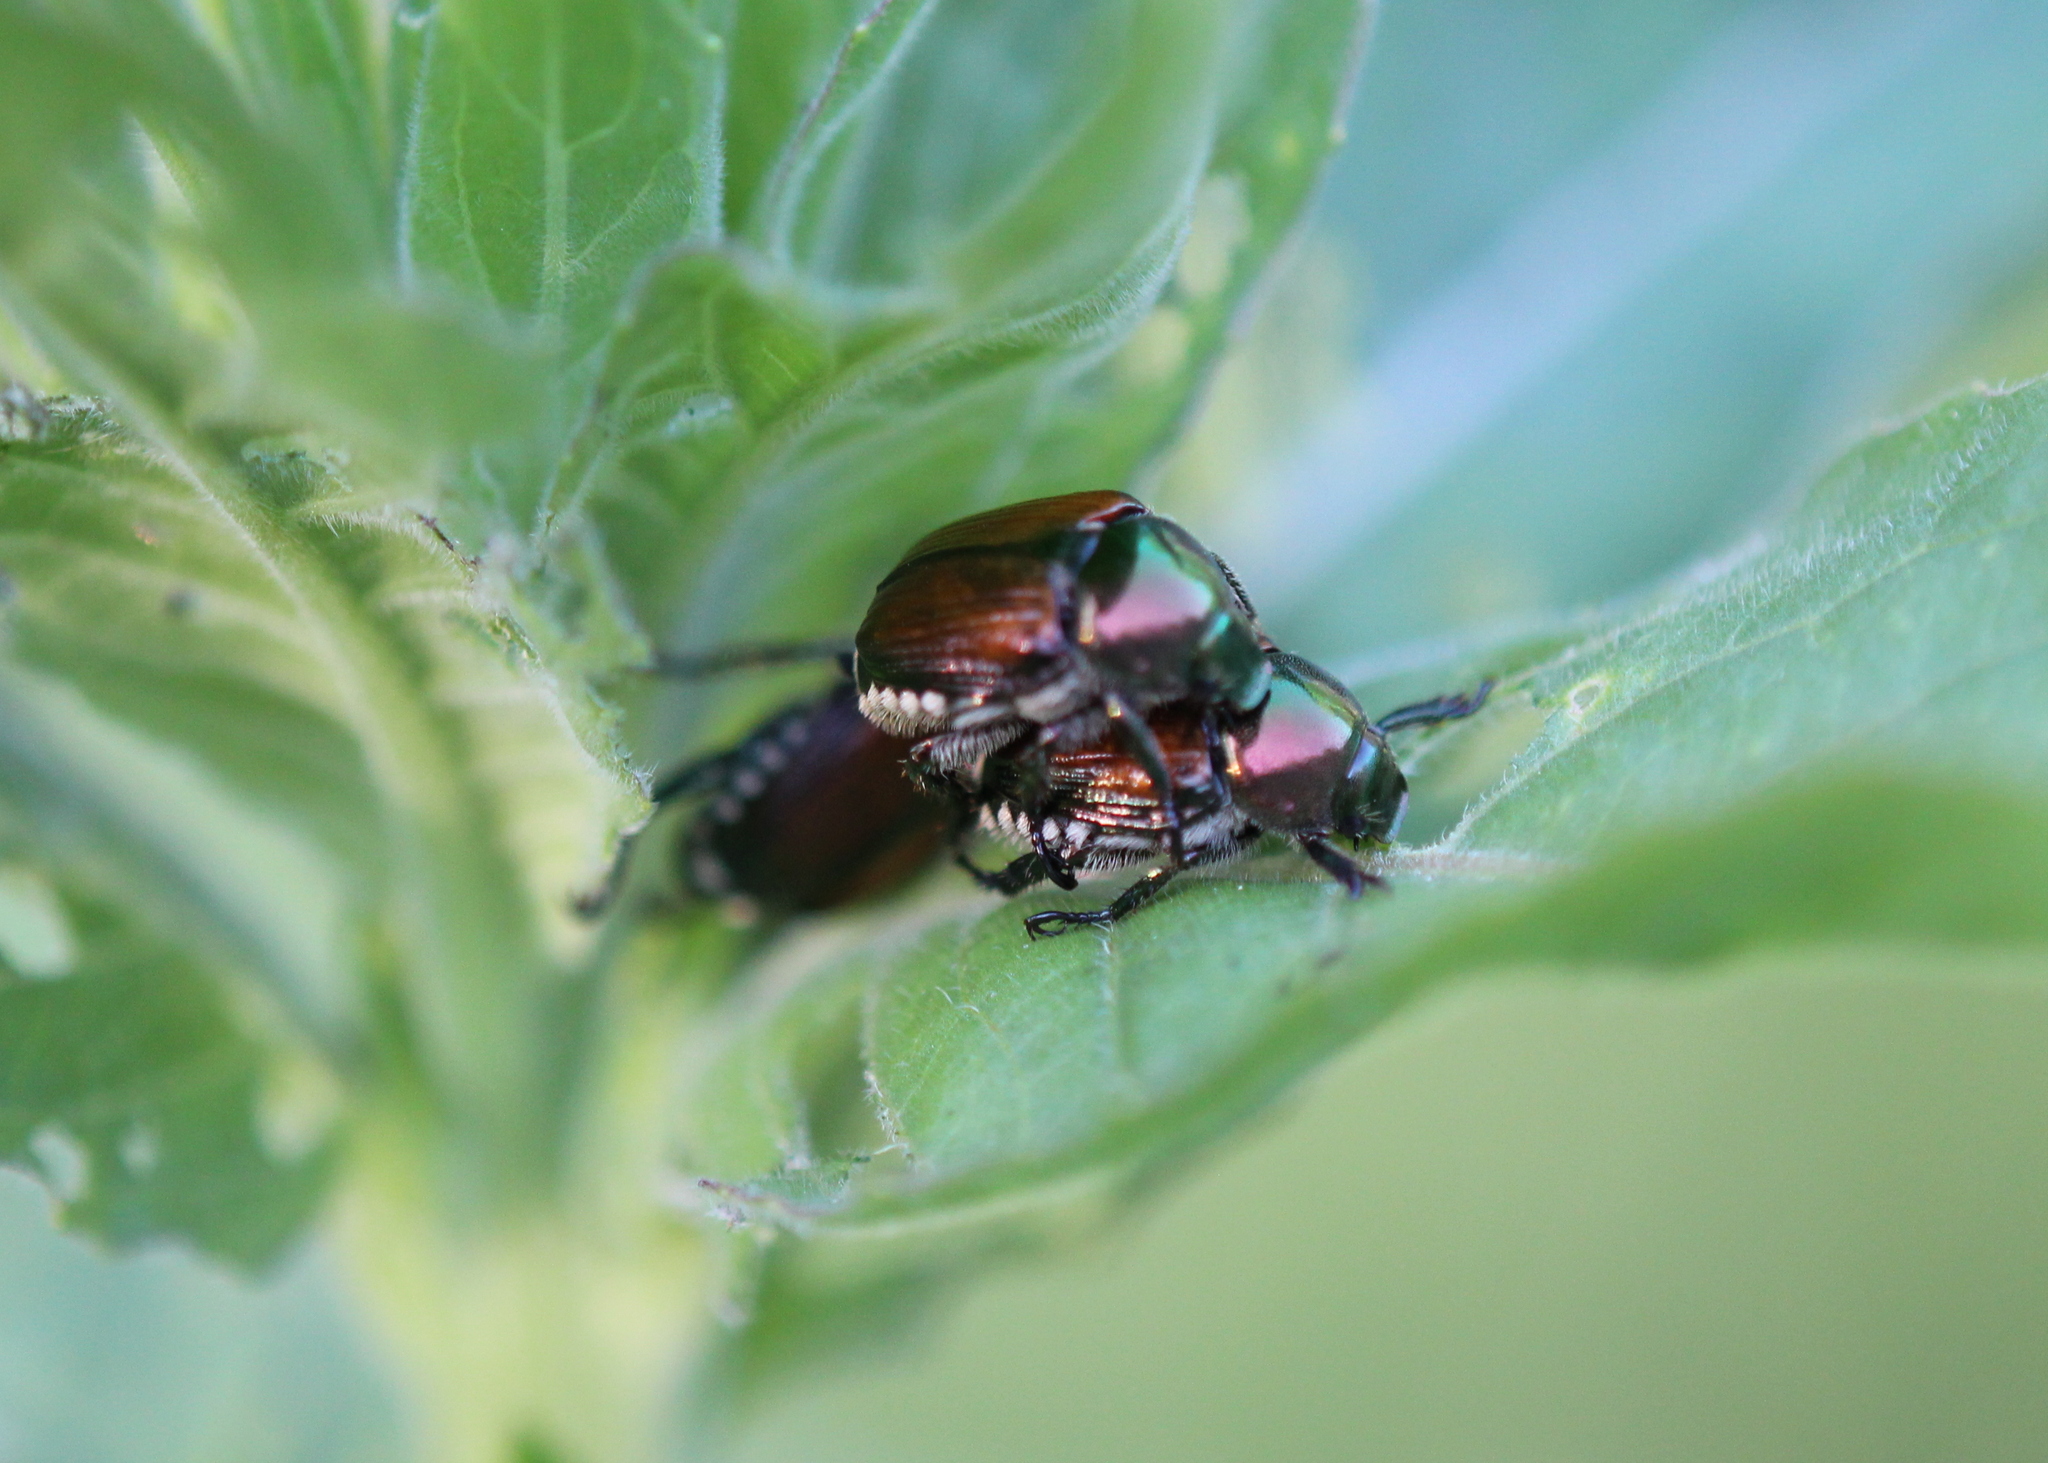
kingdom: Animalia
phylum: Arthropoda
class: Insecta
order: Coleoptera
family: Scarabaeidae
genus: Popillia
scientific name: Popillia japonica
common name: Japanese beetle
